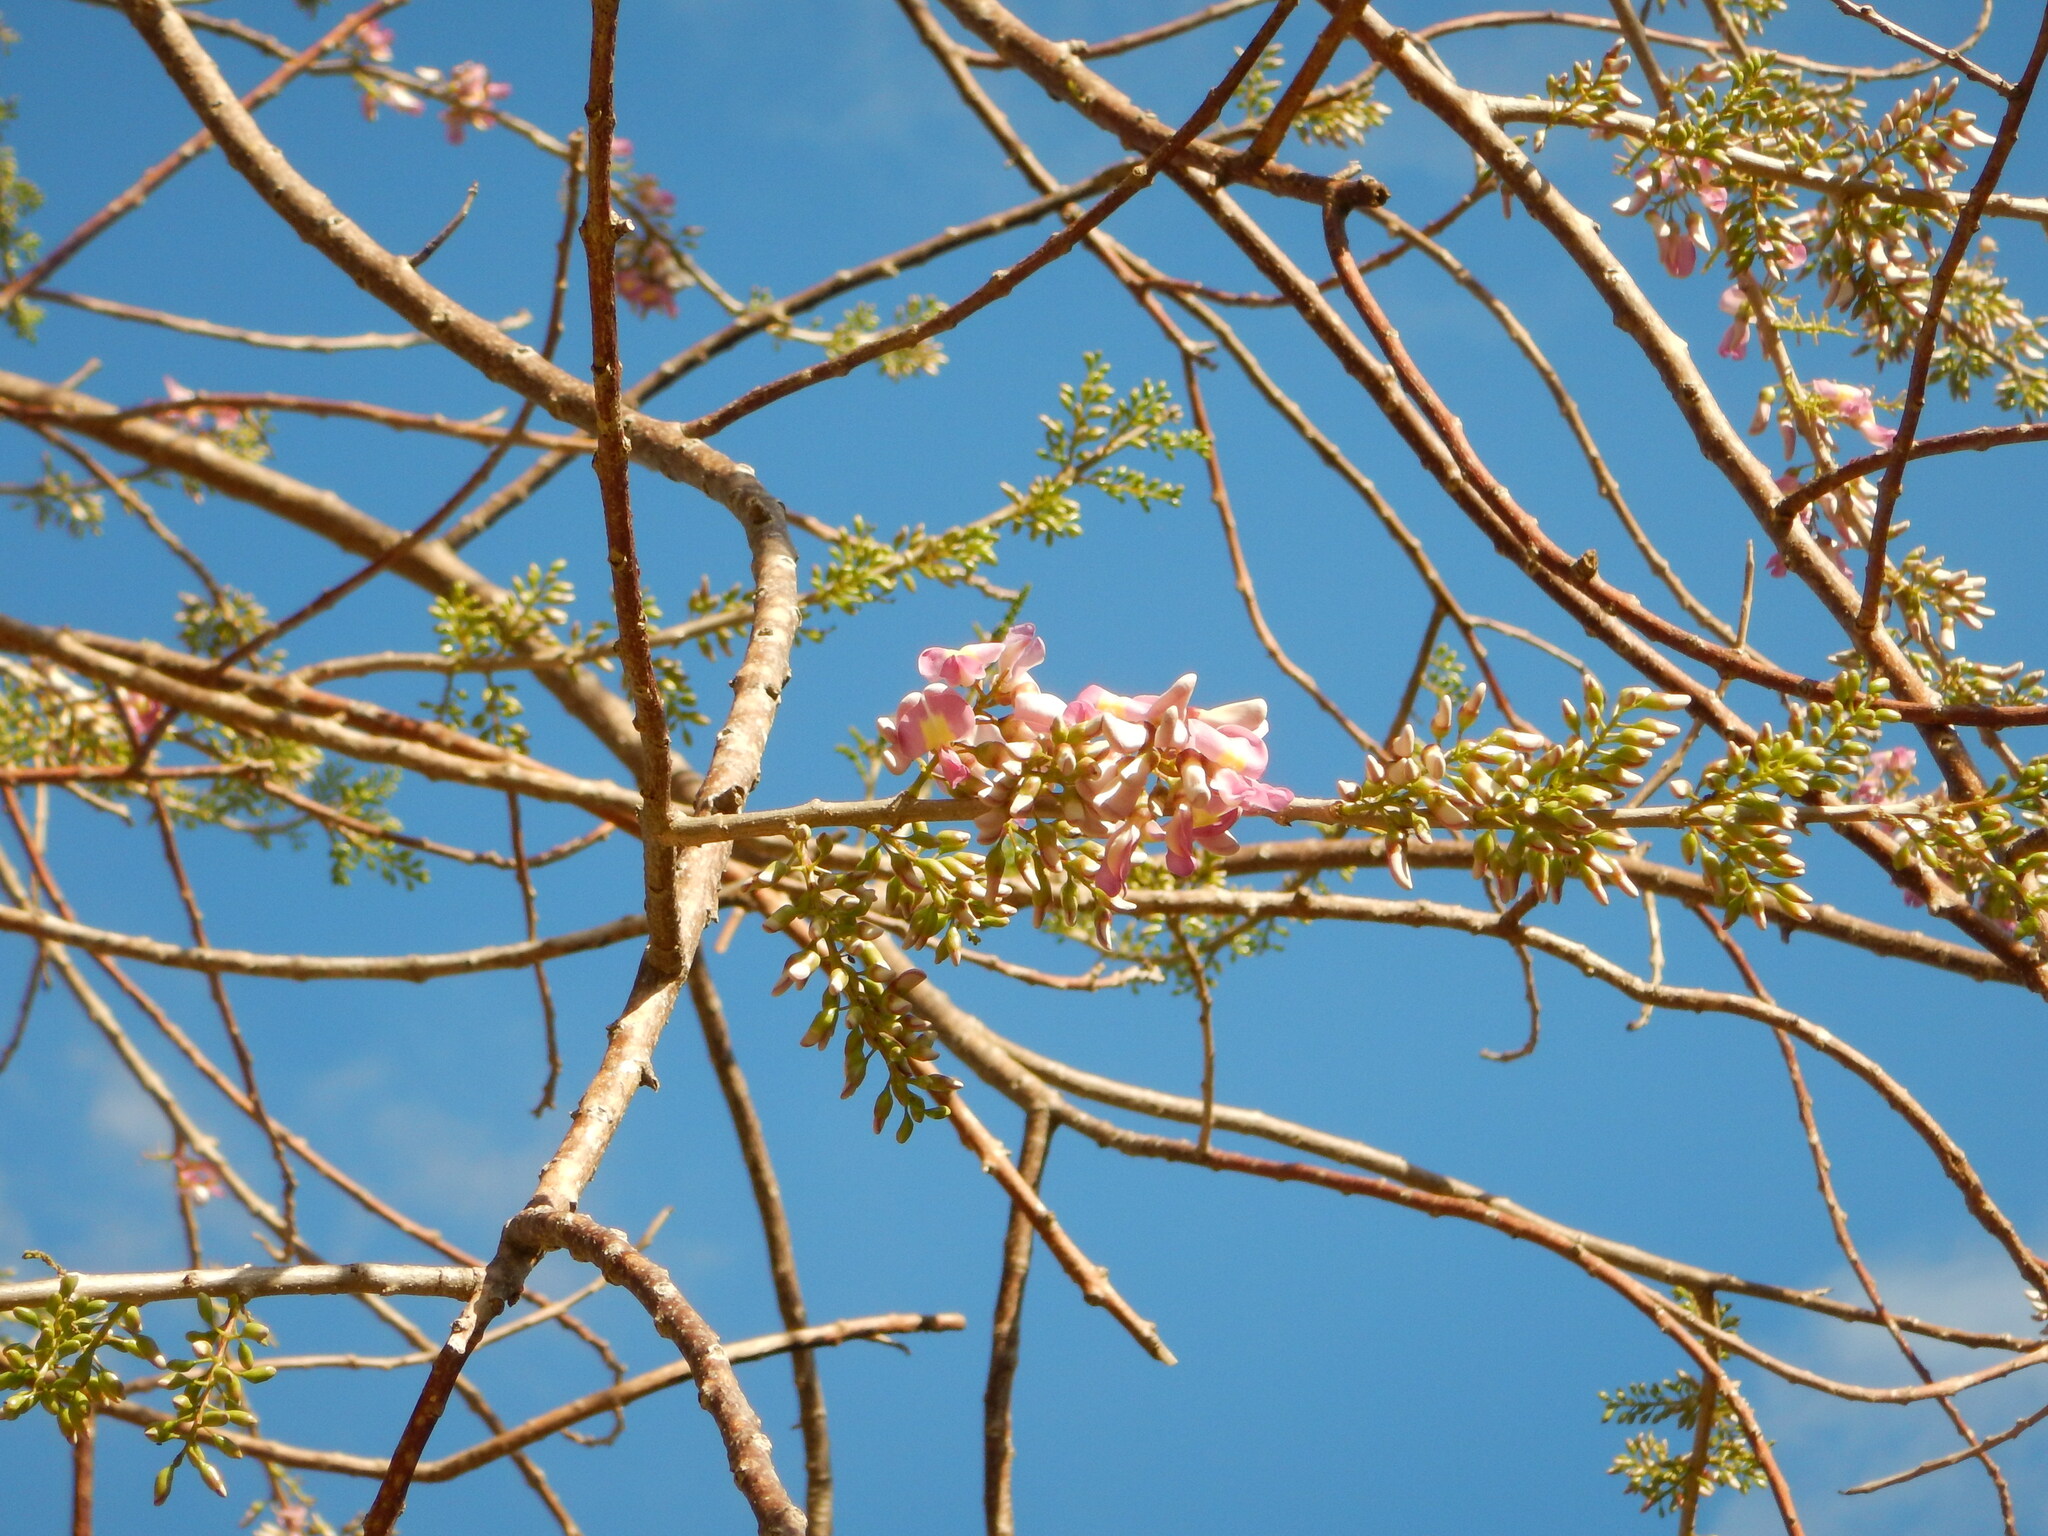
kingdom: Plantae
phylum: Tracheophyta
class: Magnoliopsida
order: Fabales
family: Fabaceae
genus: Gliricidia
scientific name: Gliricidia sepium
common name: Quickstick
